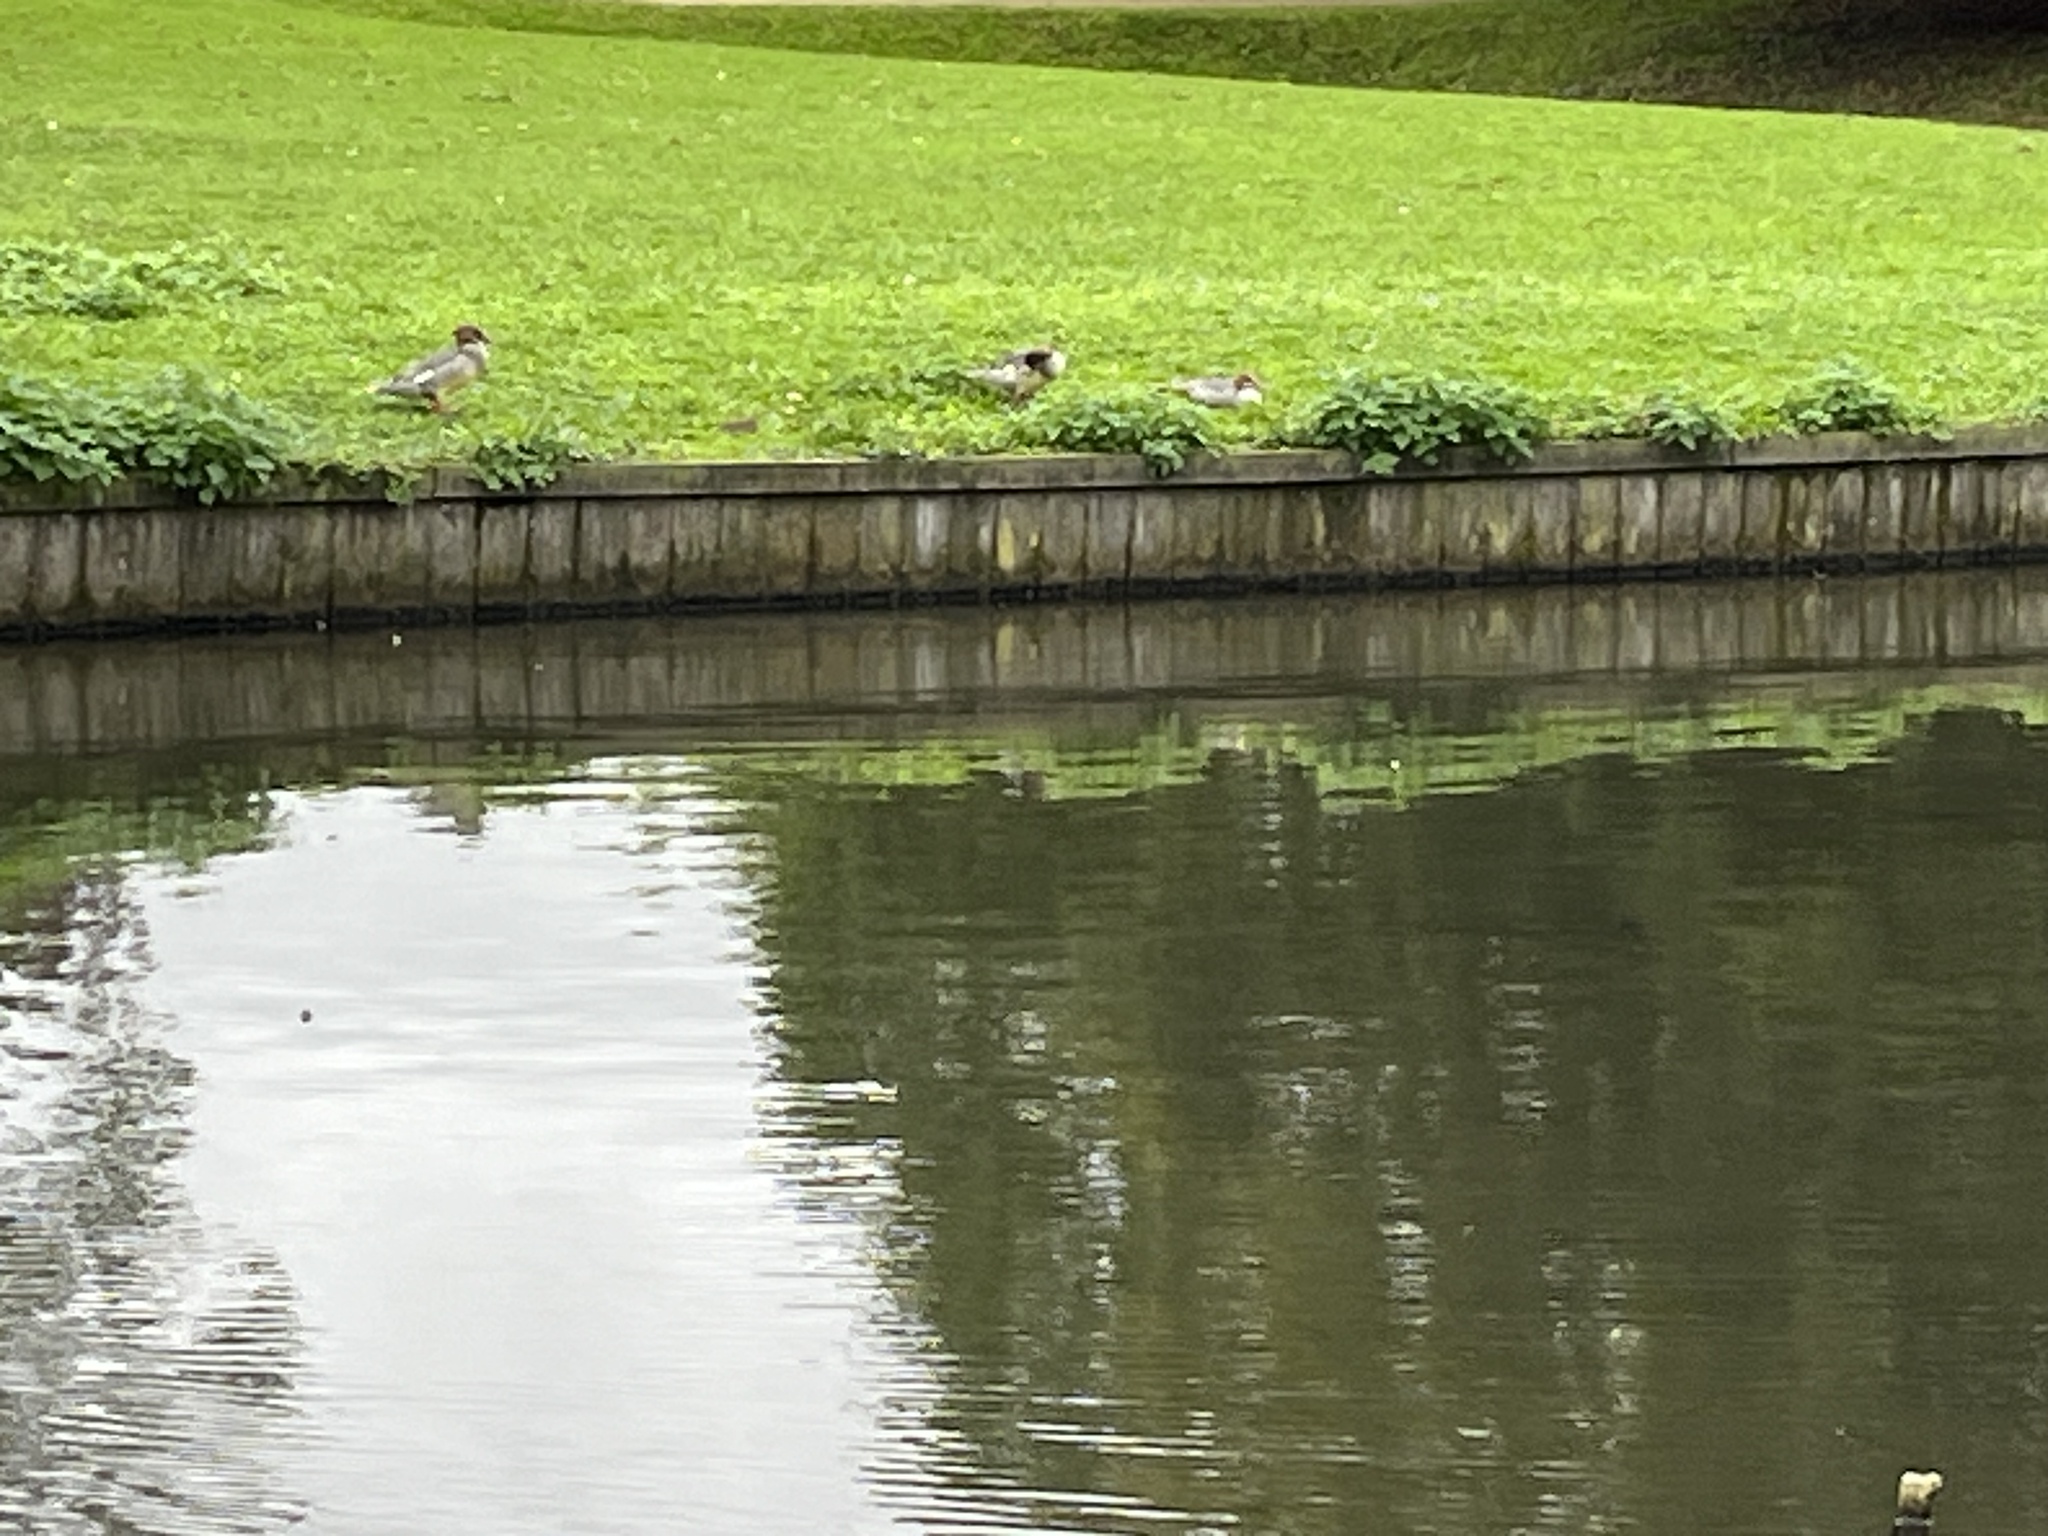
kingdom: Animalia
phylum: Chordata
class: Aves
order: Anseriformes
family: Anatidae
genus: Mergus
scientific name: Mergus merganser
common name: Common merganser
